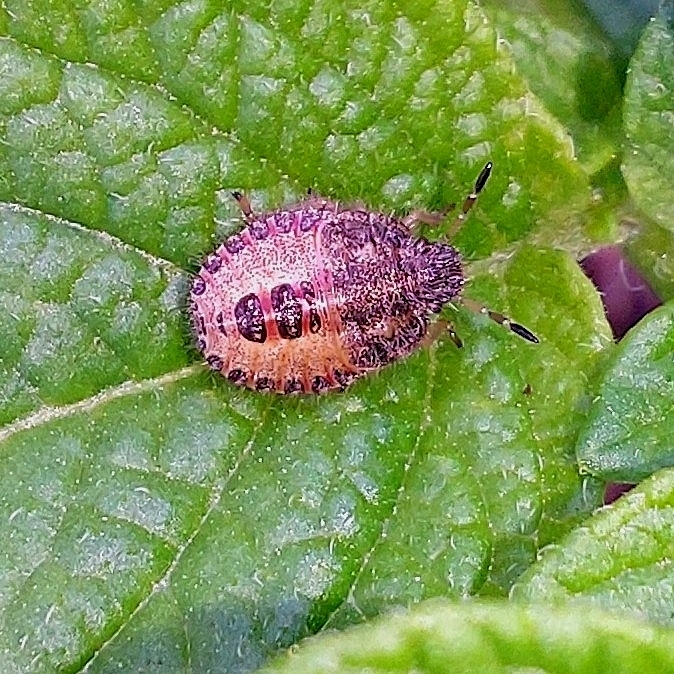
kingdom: Animalia
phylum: Arthropoda
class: Insecta
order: Hemiptera
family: Pentatomidae
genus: Dolycoris
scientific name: Dolycoris baccarum
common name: Sloe bug
